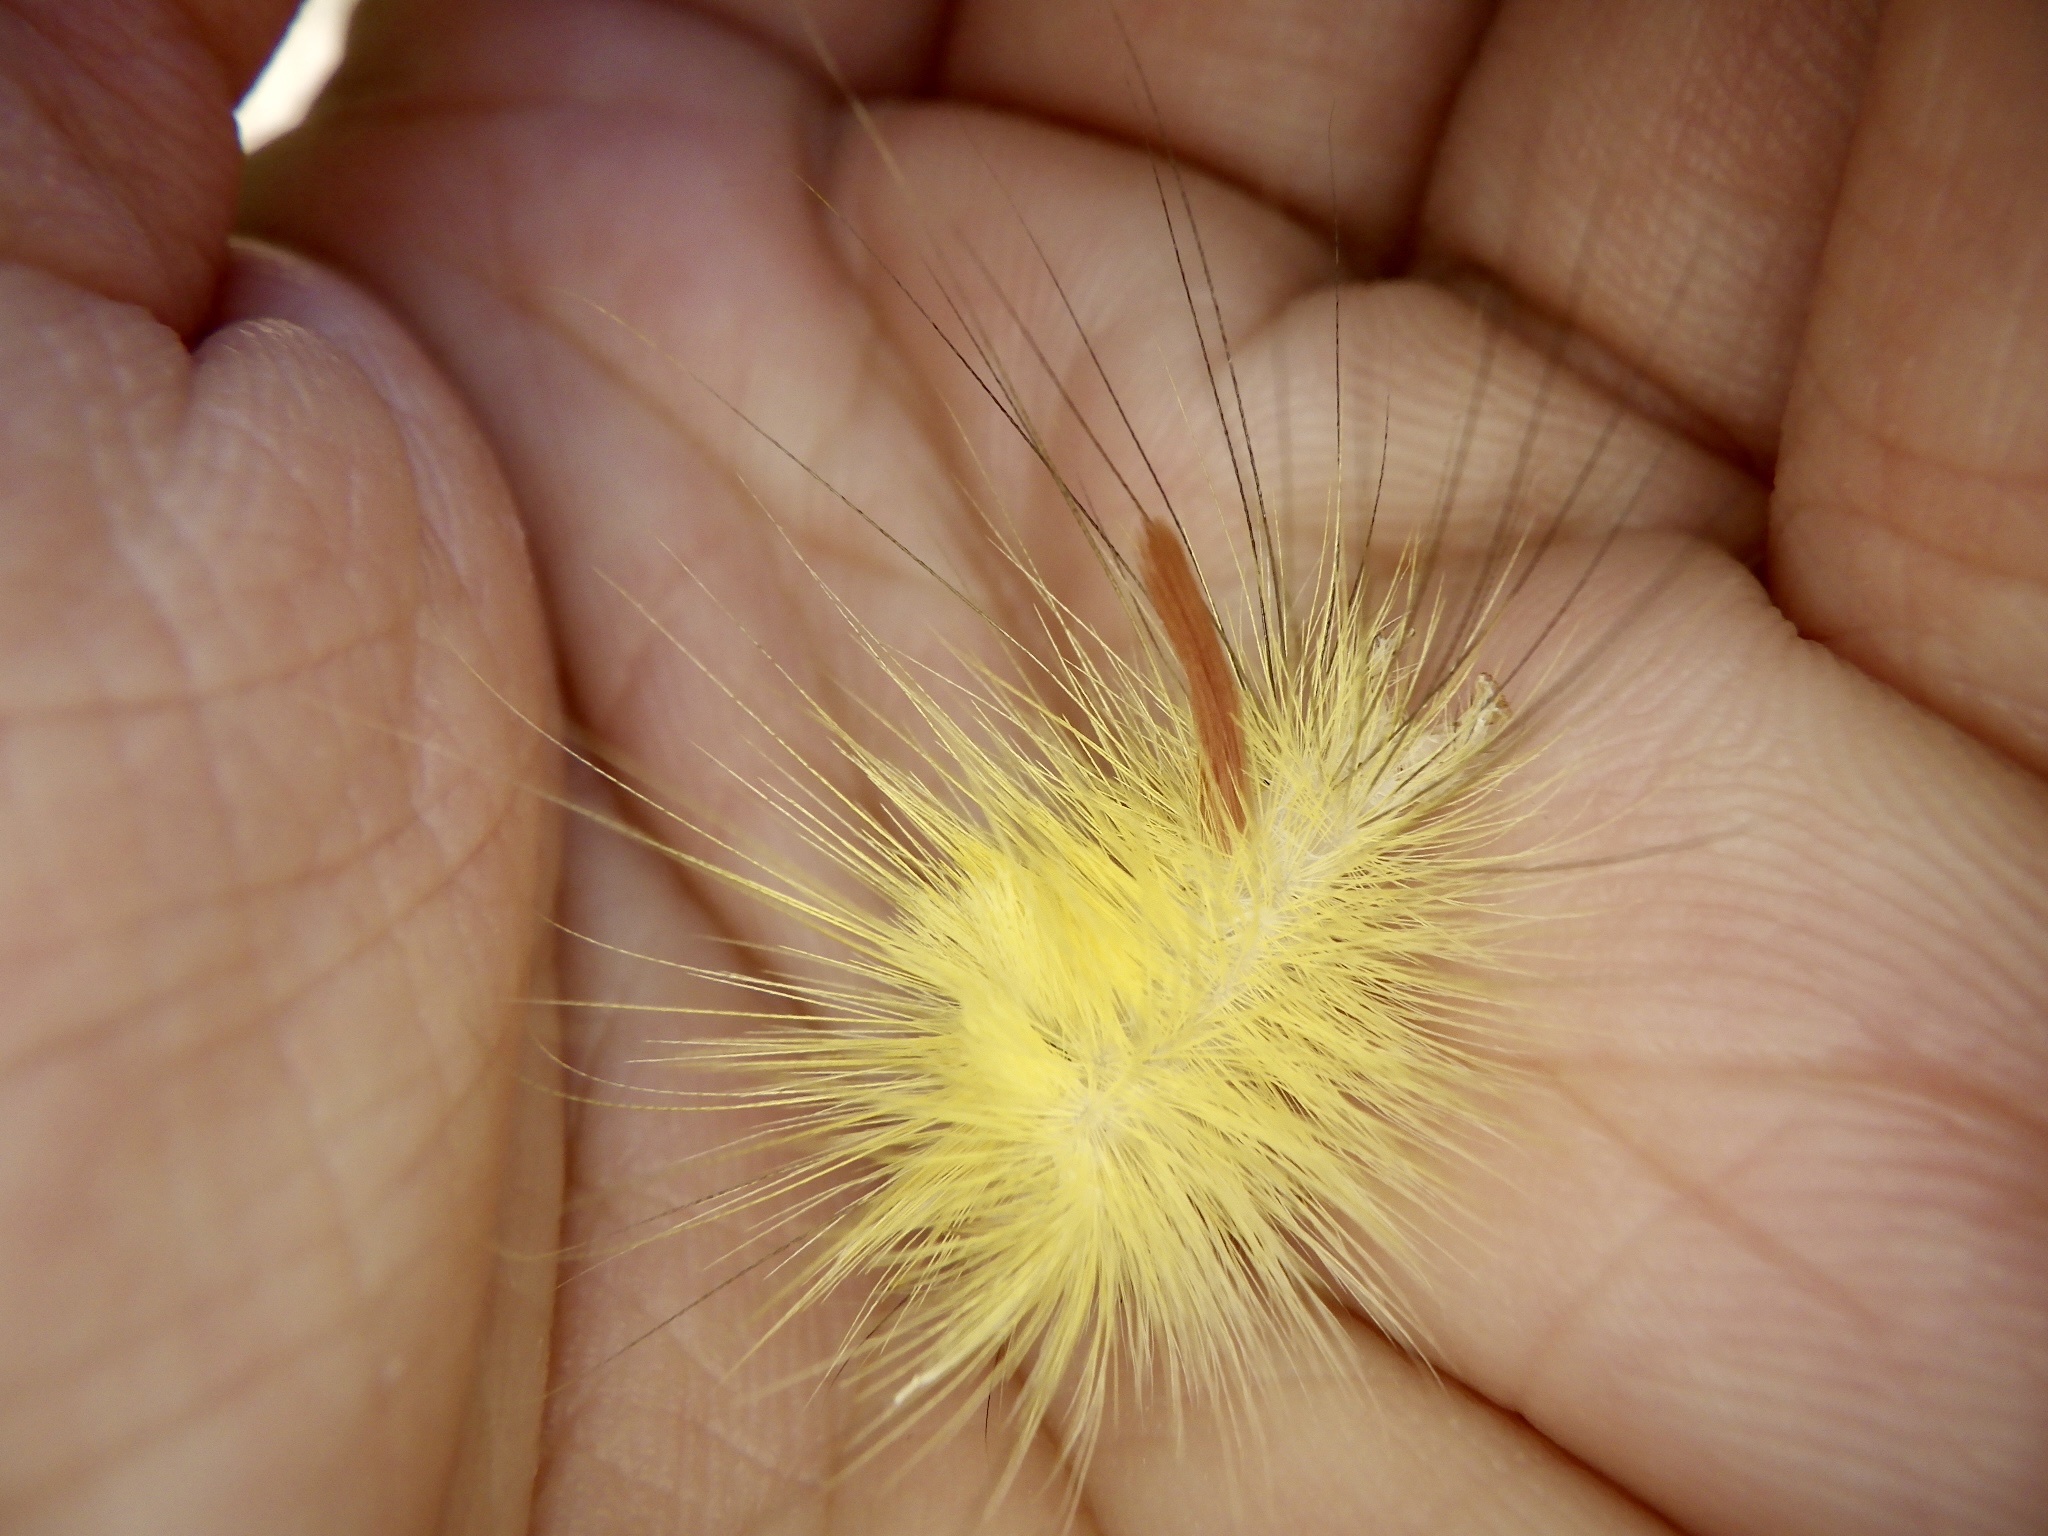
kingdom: Animalia
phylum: Arthropoda
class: Insecta
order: Lepidoptera
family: Erebidae
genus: Calliteara
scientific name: Calliteara
